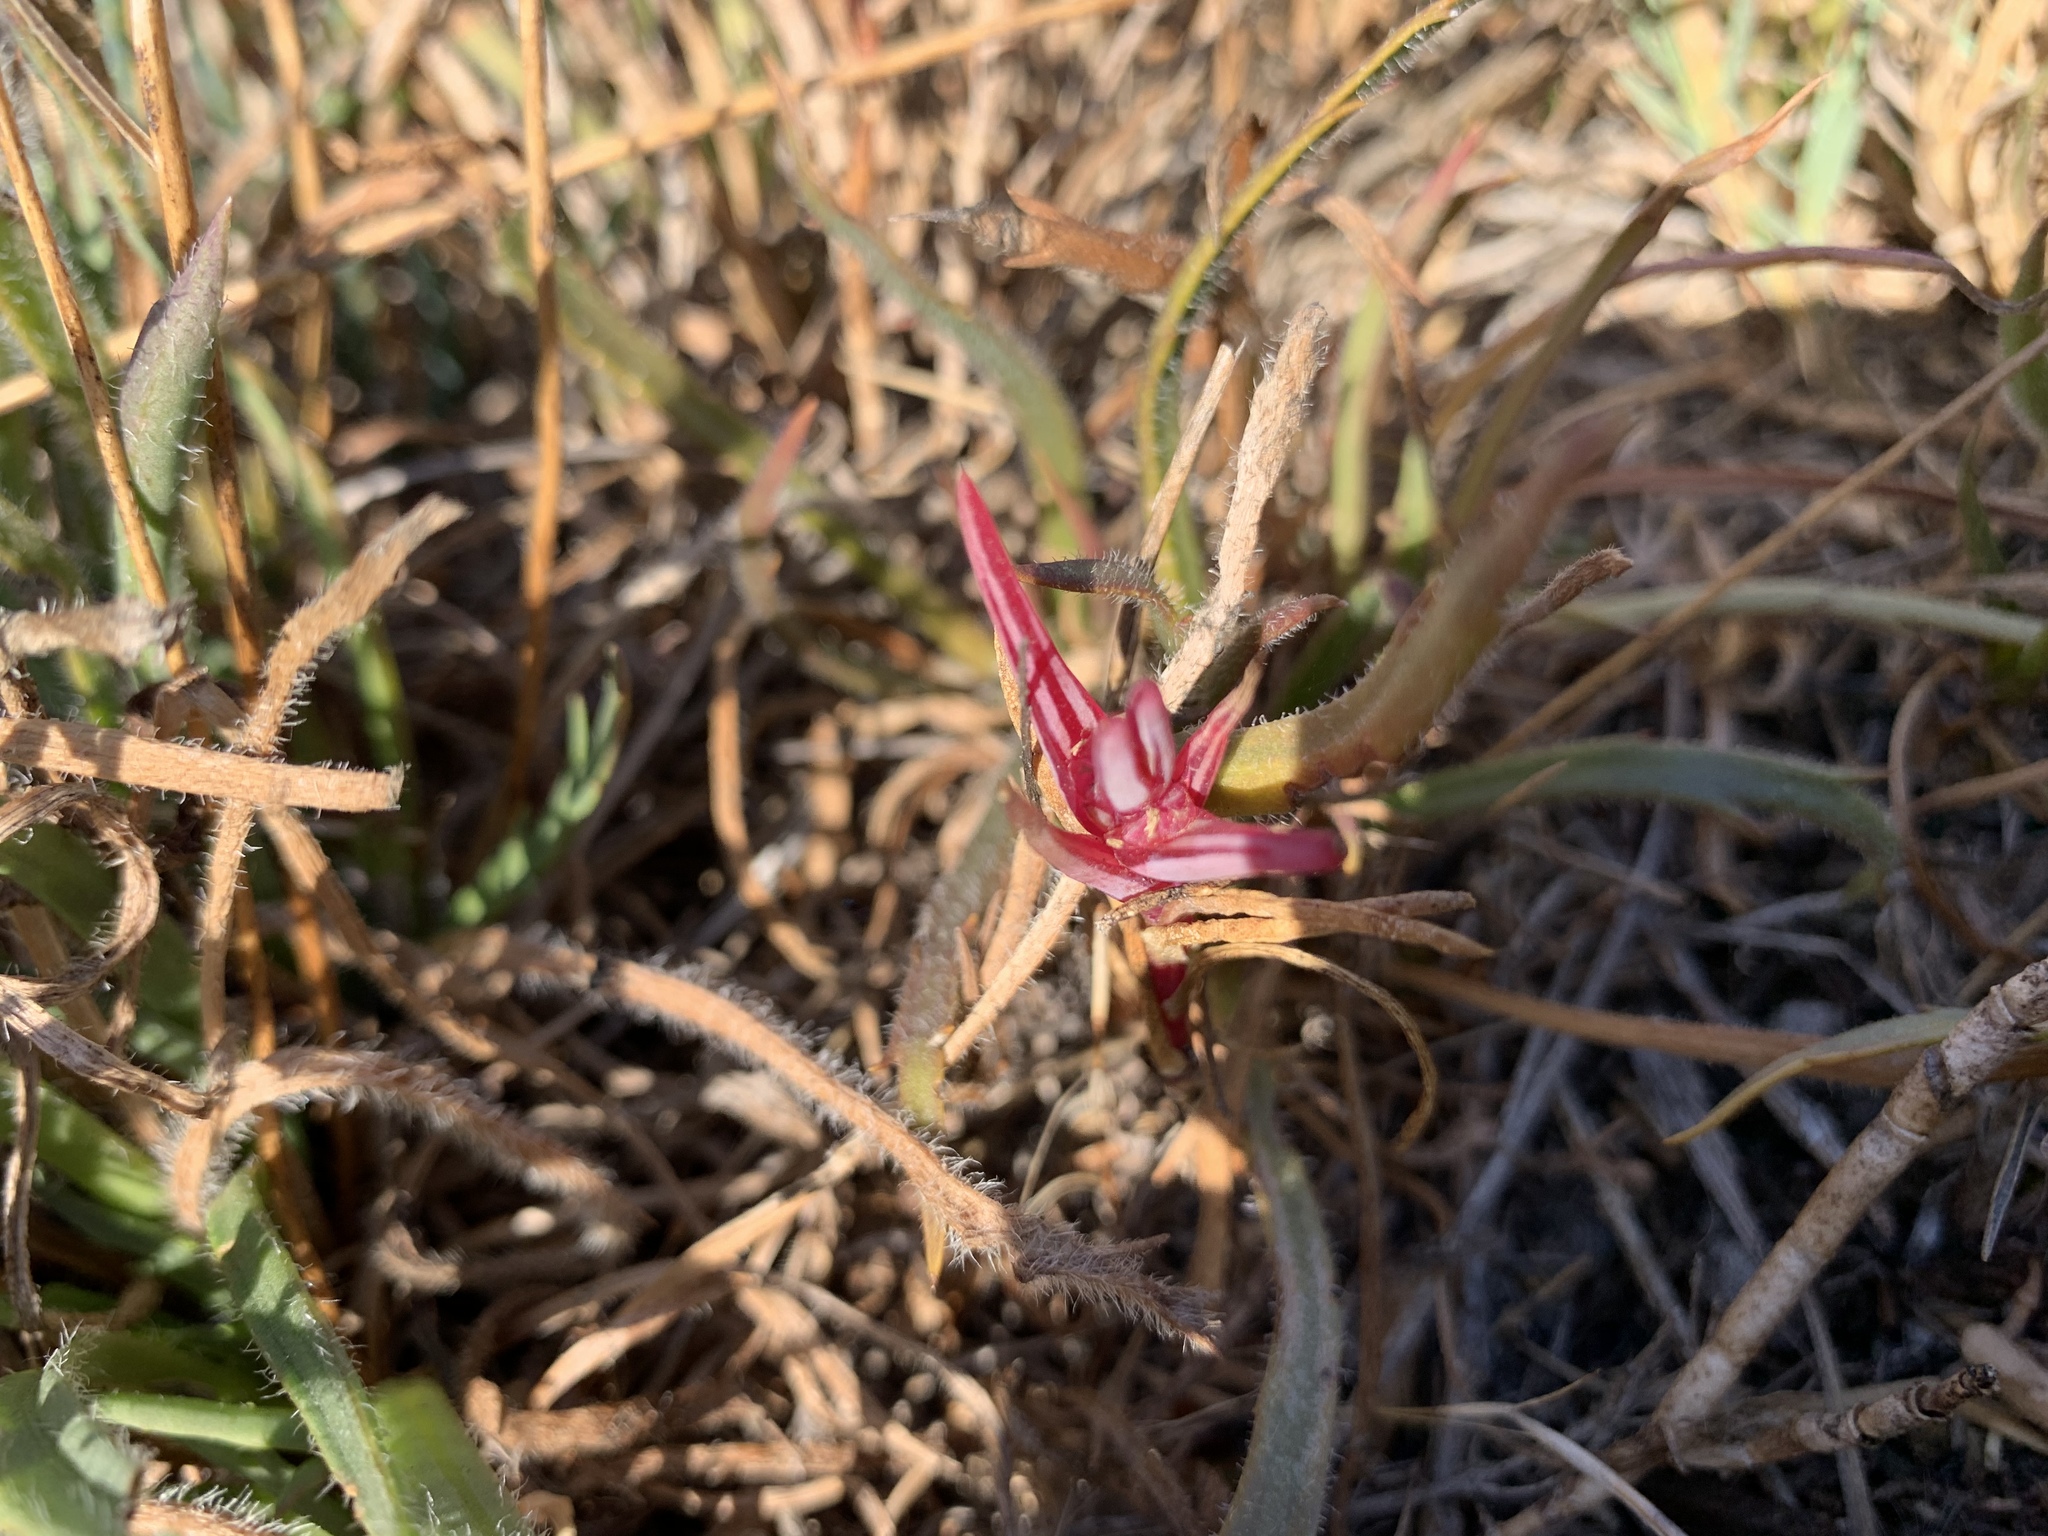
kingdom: Plantae
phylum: Tracheophyta
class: Magnoliopsida
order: Caryophyllales
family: Amaranthaceae
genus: Salsola
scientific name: Salsola soda
